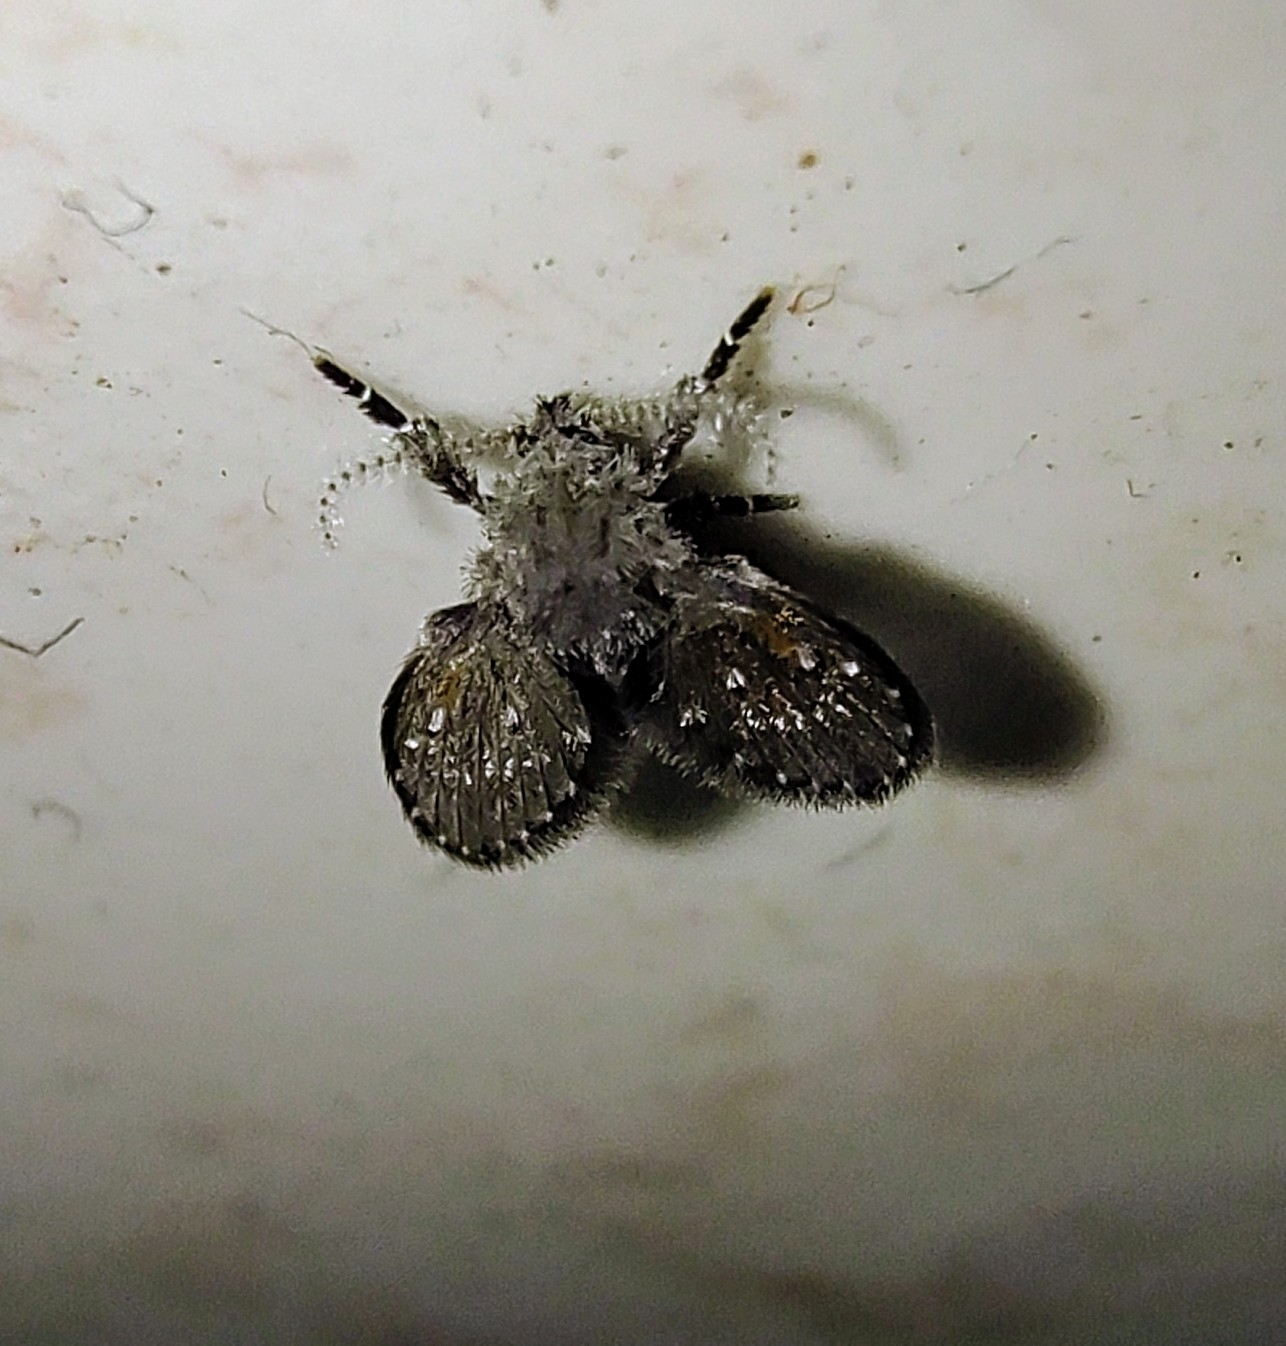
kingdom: Animalia
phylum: Arthropoda
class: Insecta
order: Diptera
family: Psychodidae
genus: Clogmia
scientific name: Clogmia albipunctatus
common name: White-spotted moth fly
